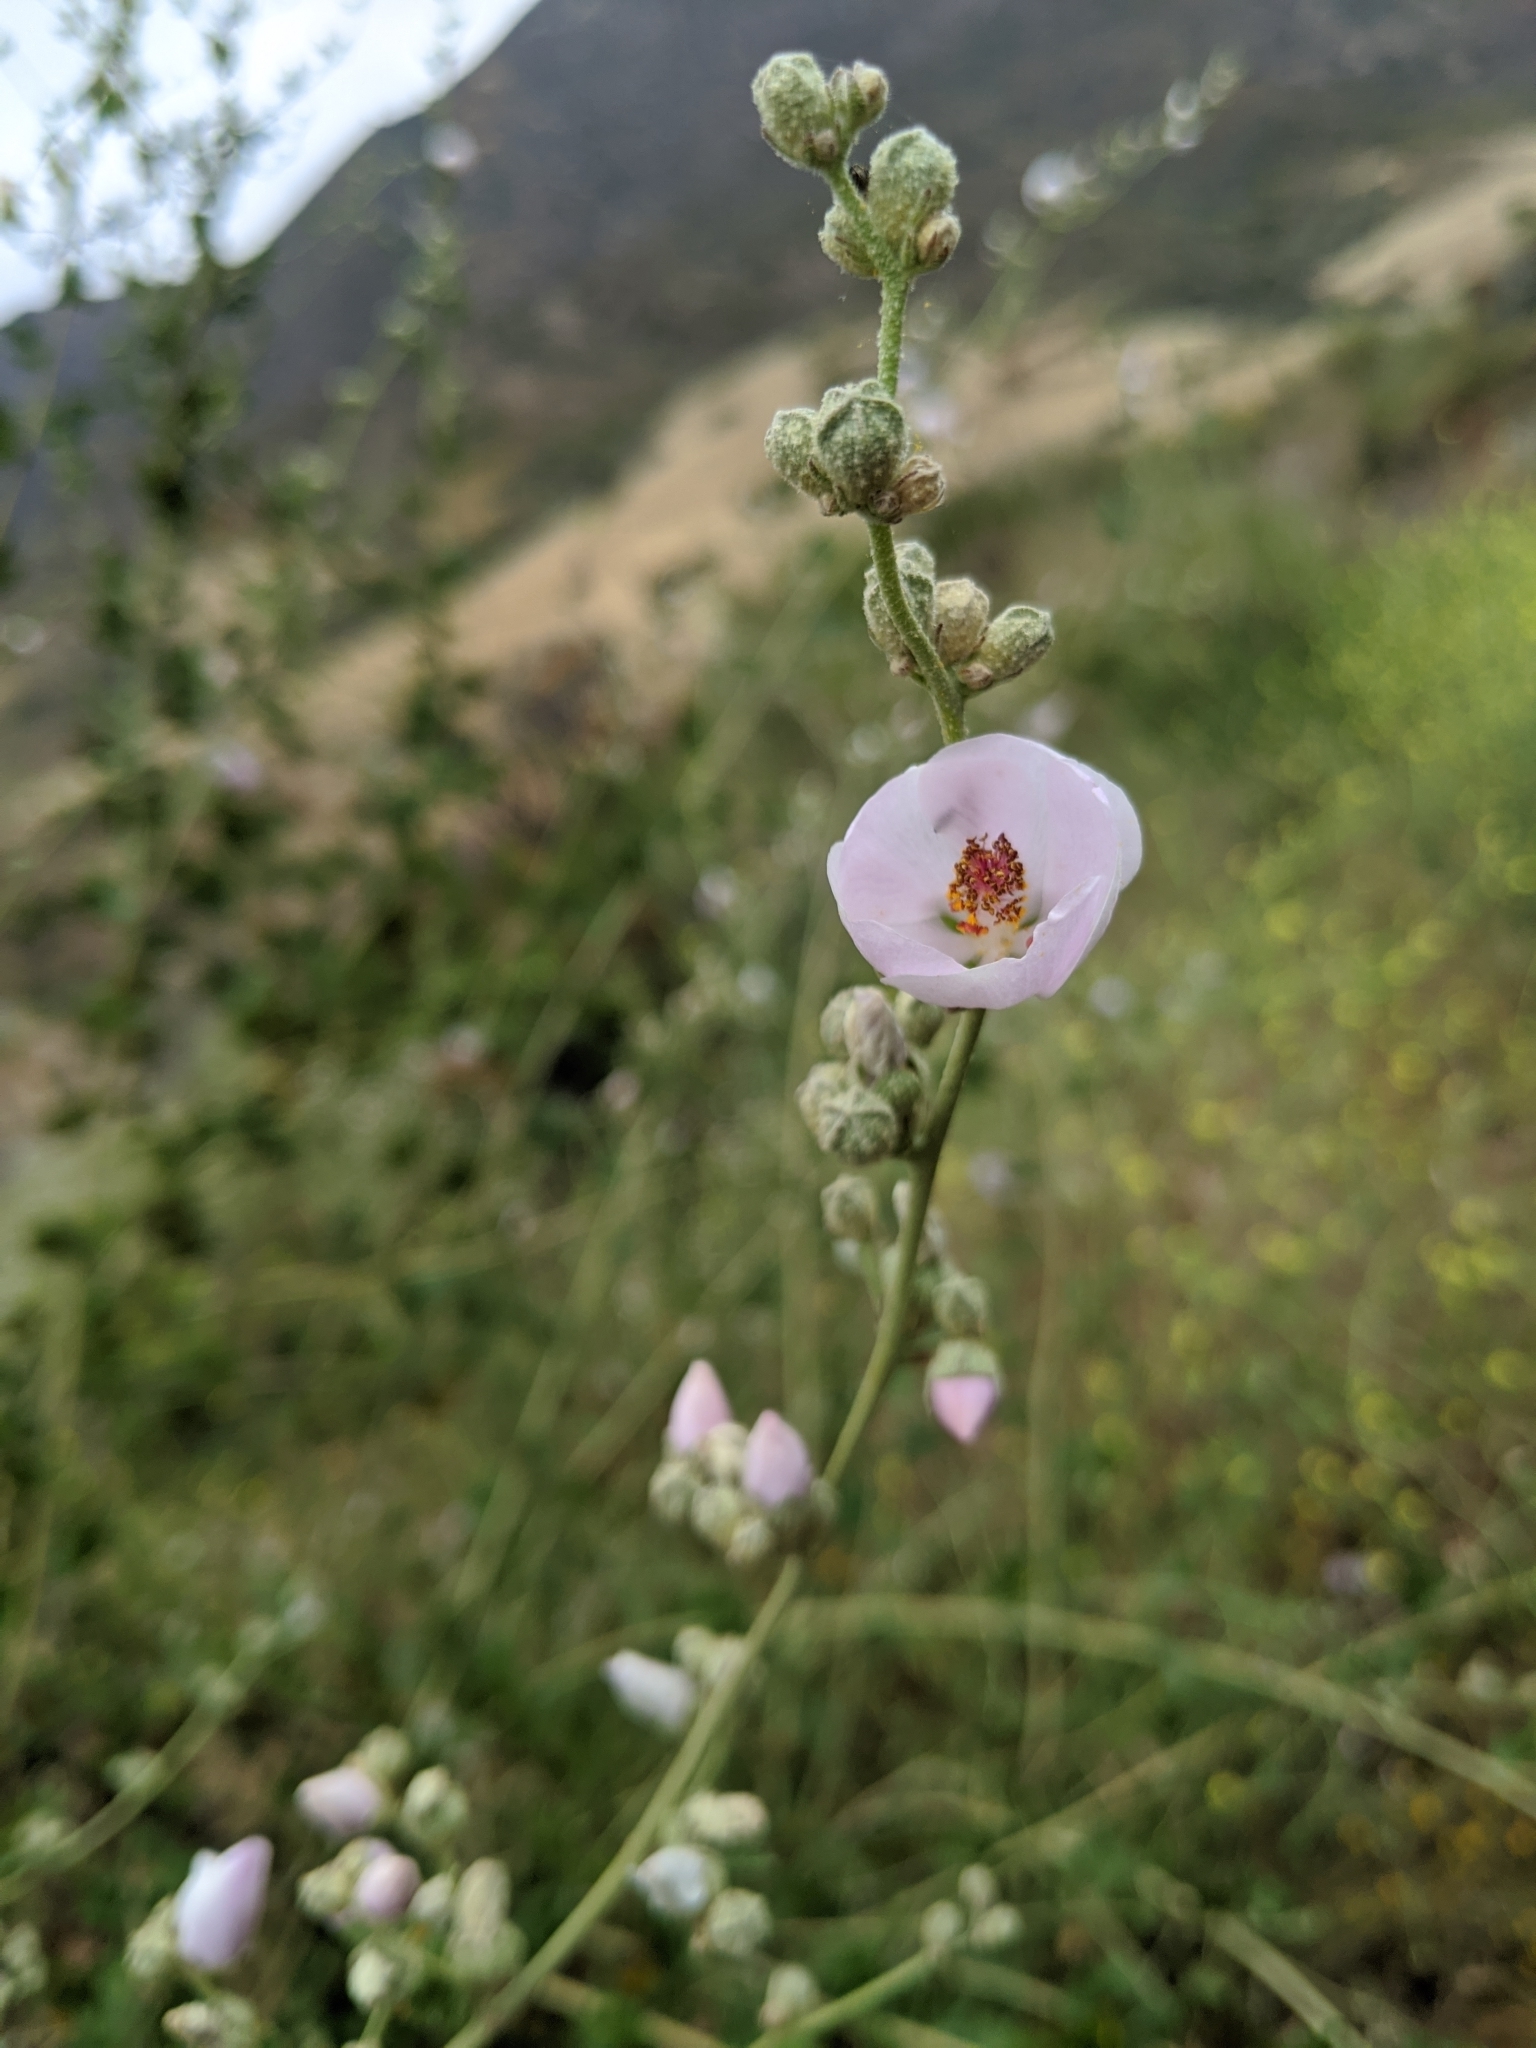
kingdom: Plantae
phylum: Tracheophyta
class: Magnoliopsida
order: Malvales
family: Malvaceae
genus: Malacothamnus
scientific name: Malacothamnus fasciculatus
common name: Sant cruz island bush-mallow
